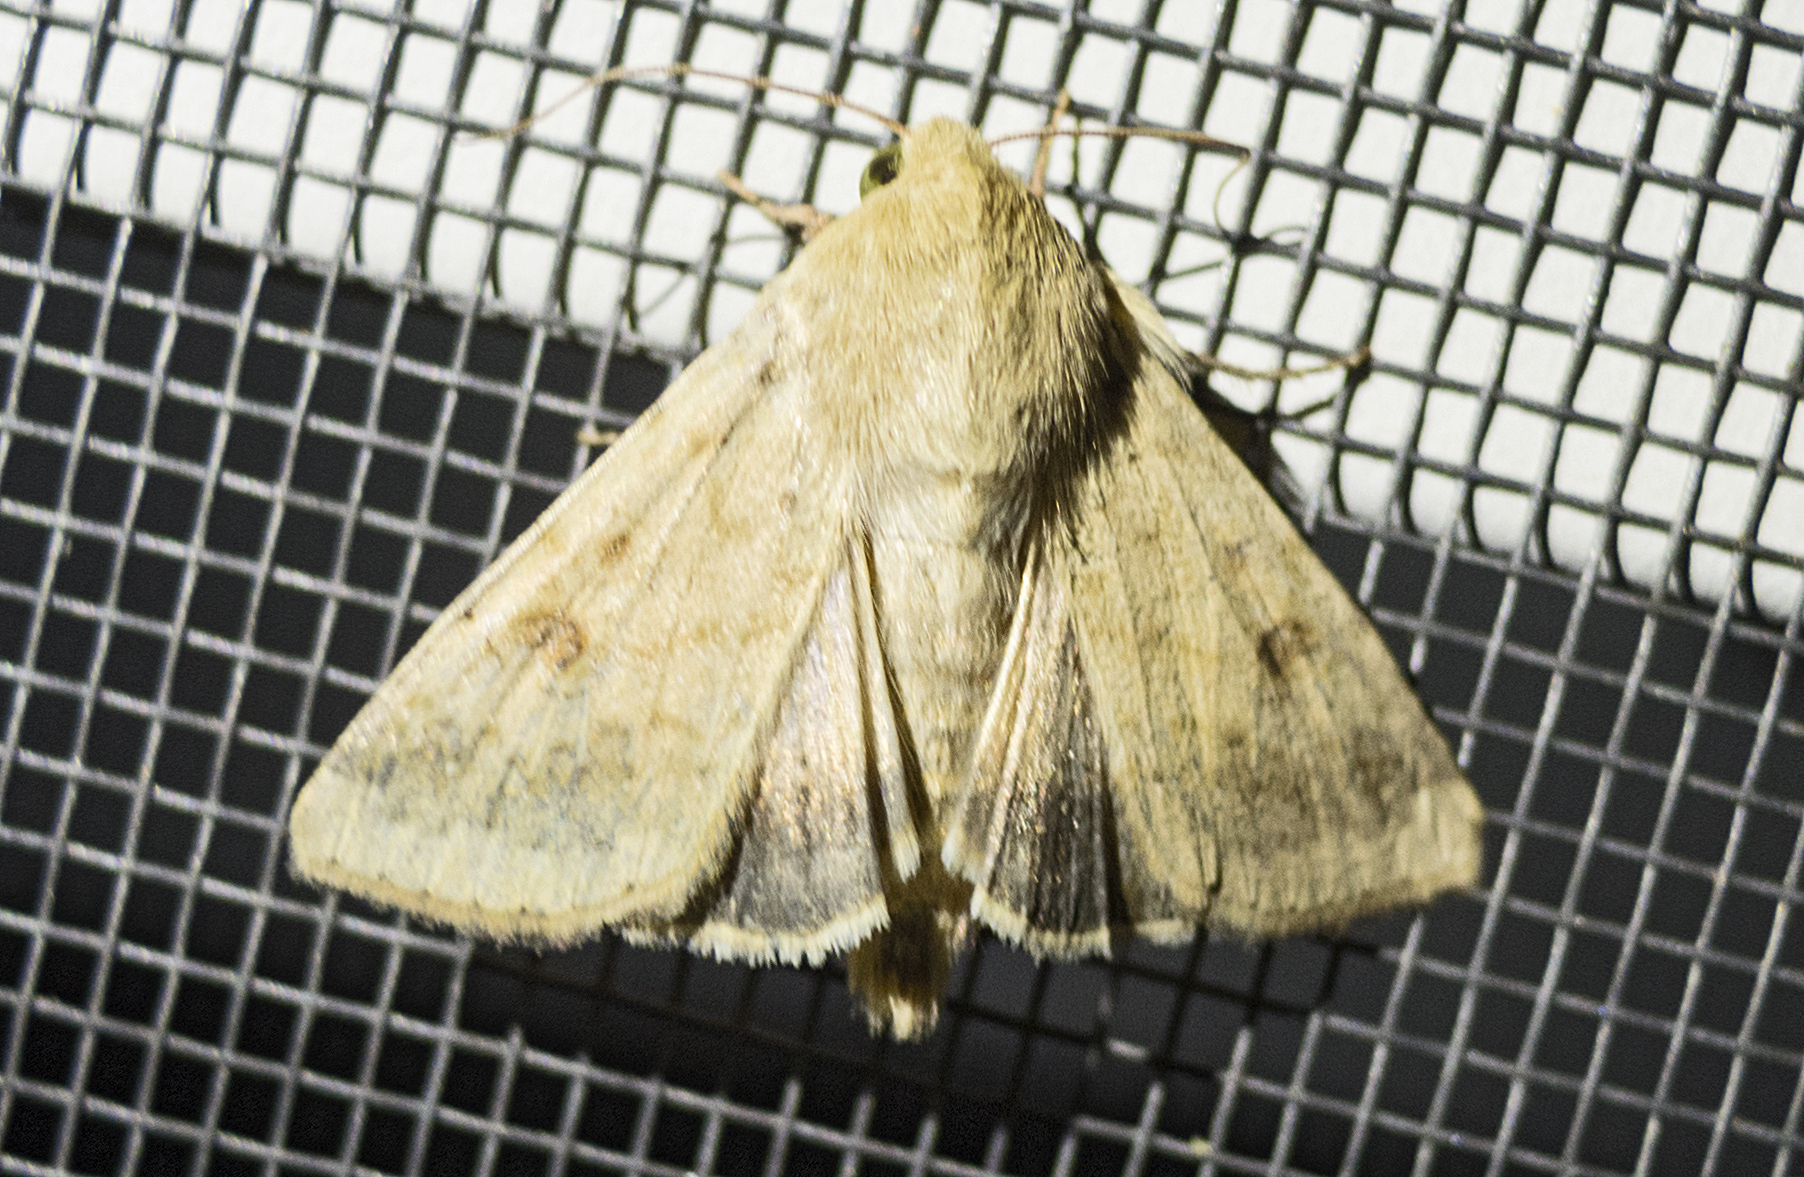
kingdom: Animalia
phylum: Arthropoda
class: Insecta
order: Lepidoptera
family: Noctuidae
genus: Helicoverpa
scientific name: Helicoverpa armigera
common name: Cotton bollworm
